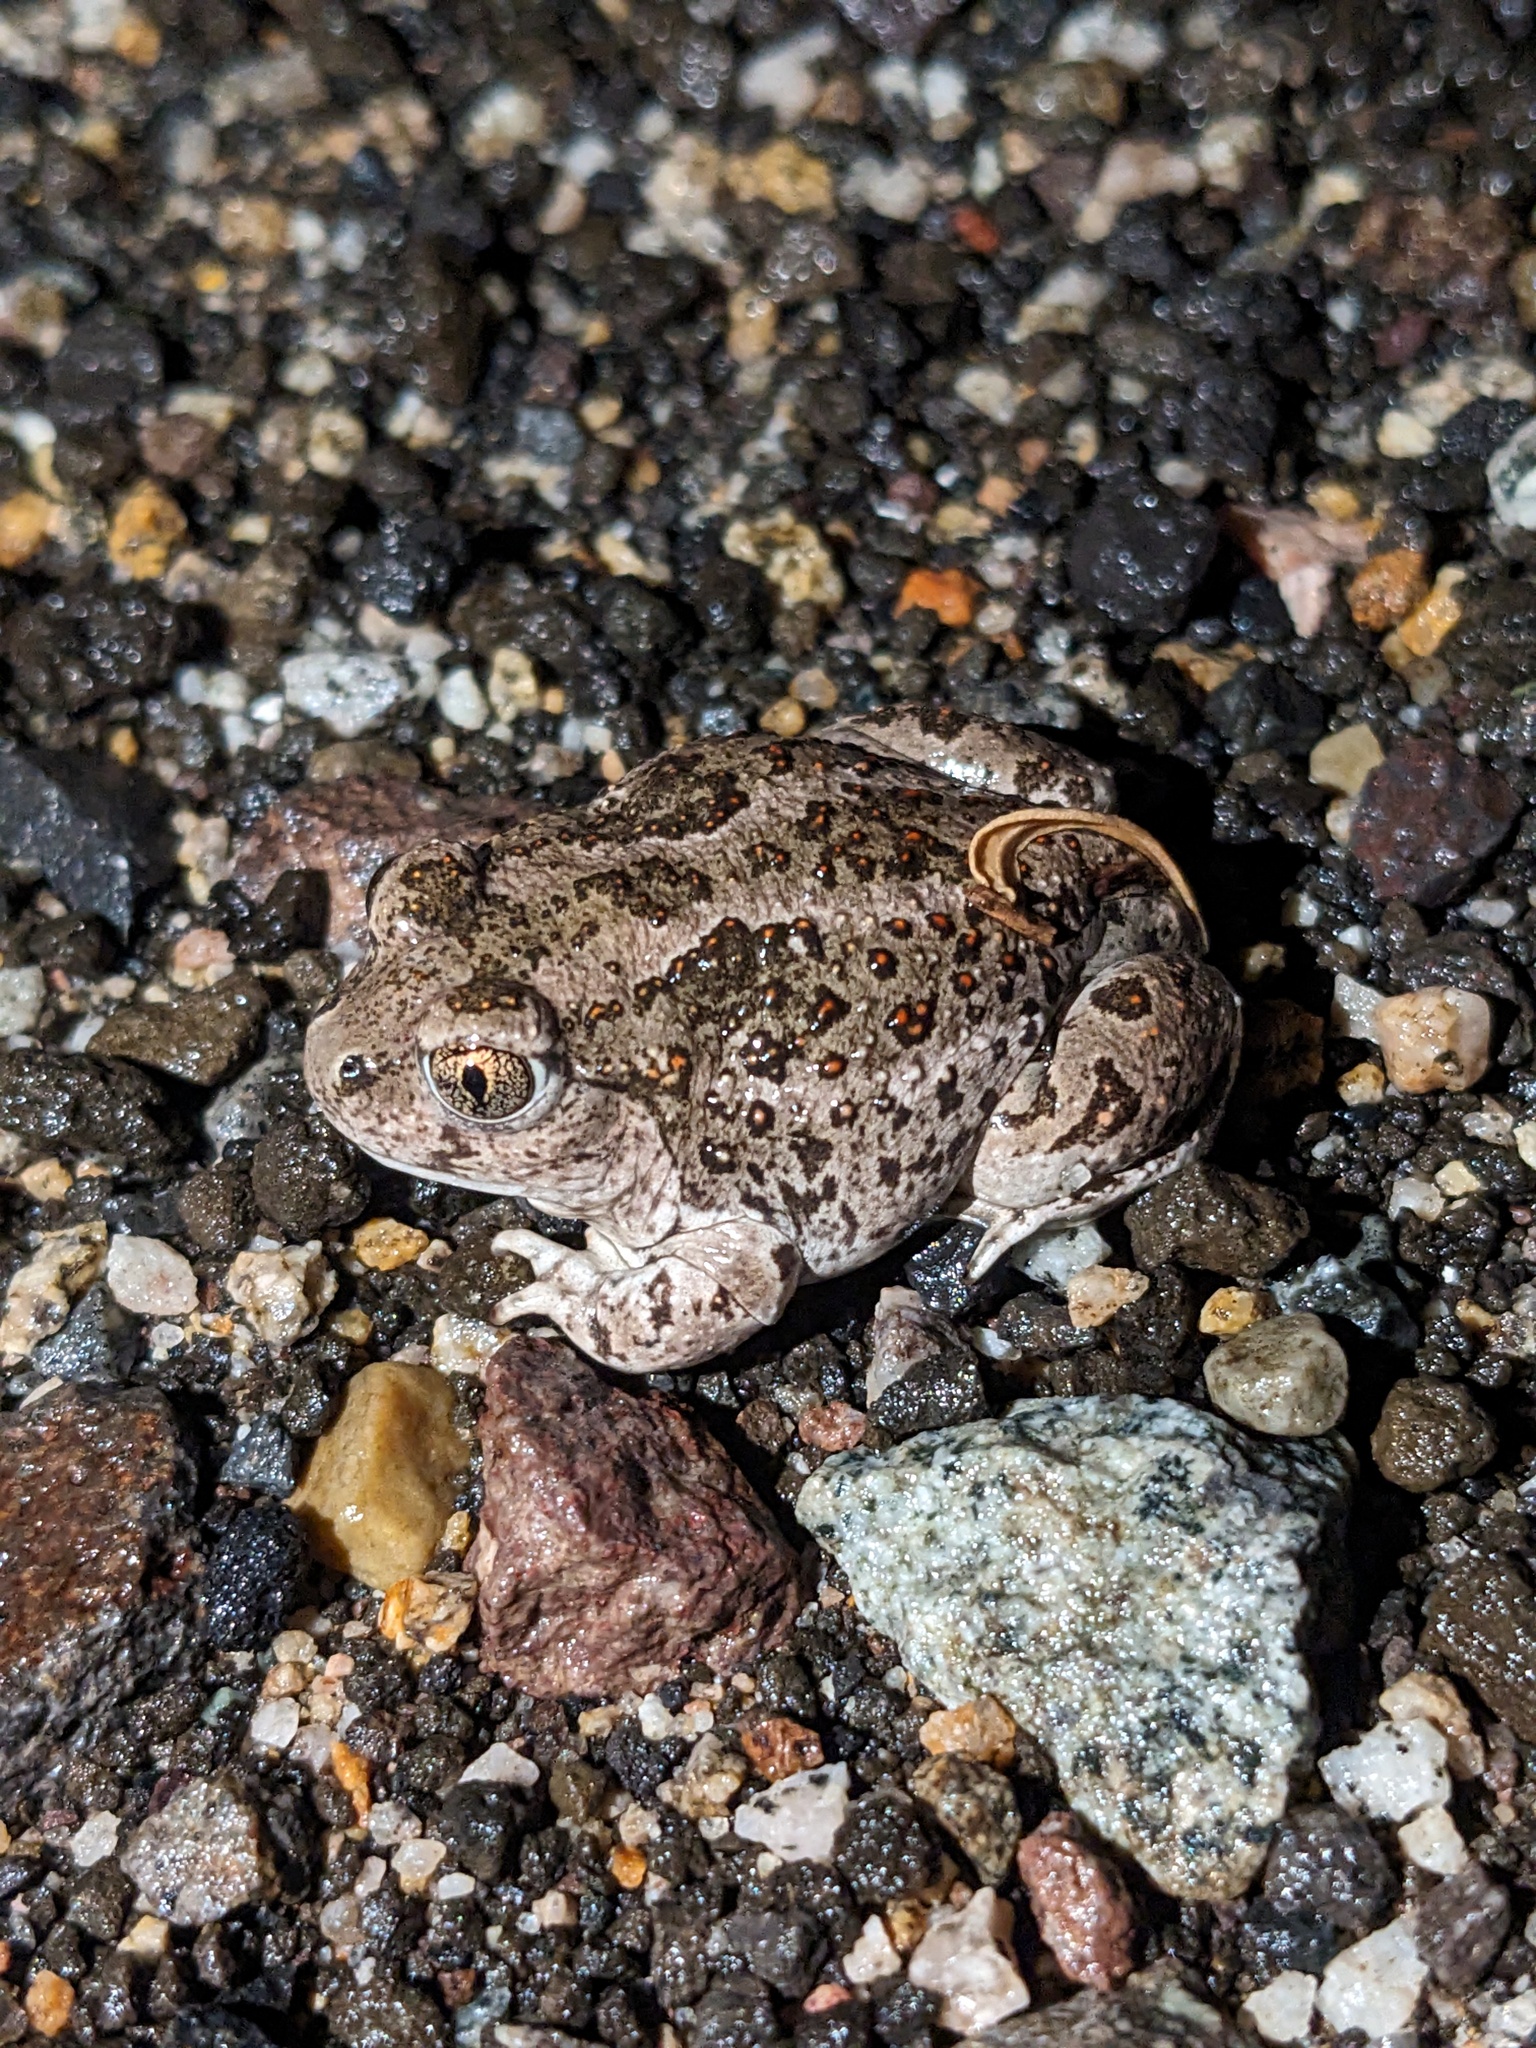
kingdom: Animalia
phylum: Chordata
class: Amphibia
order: Anura
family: Scaphiopodidae
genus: Spea
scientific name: Spea intermontana
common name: Great basin spadefoot
